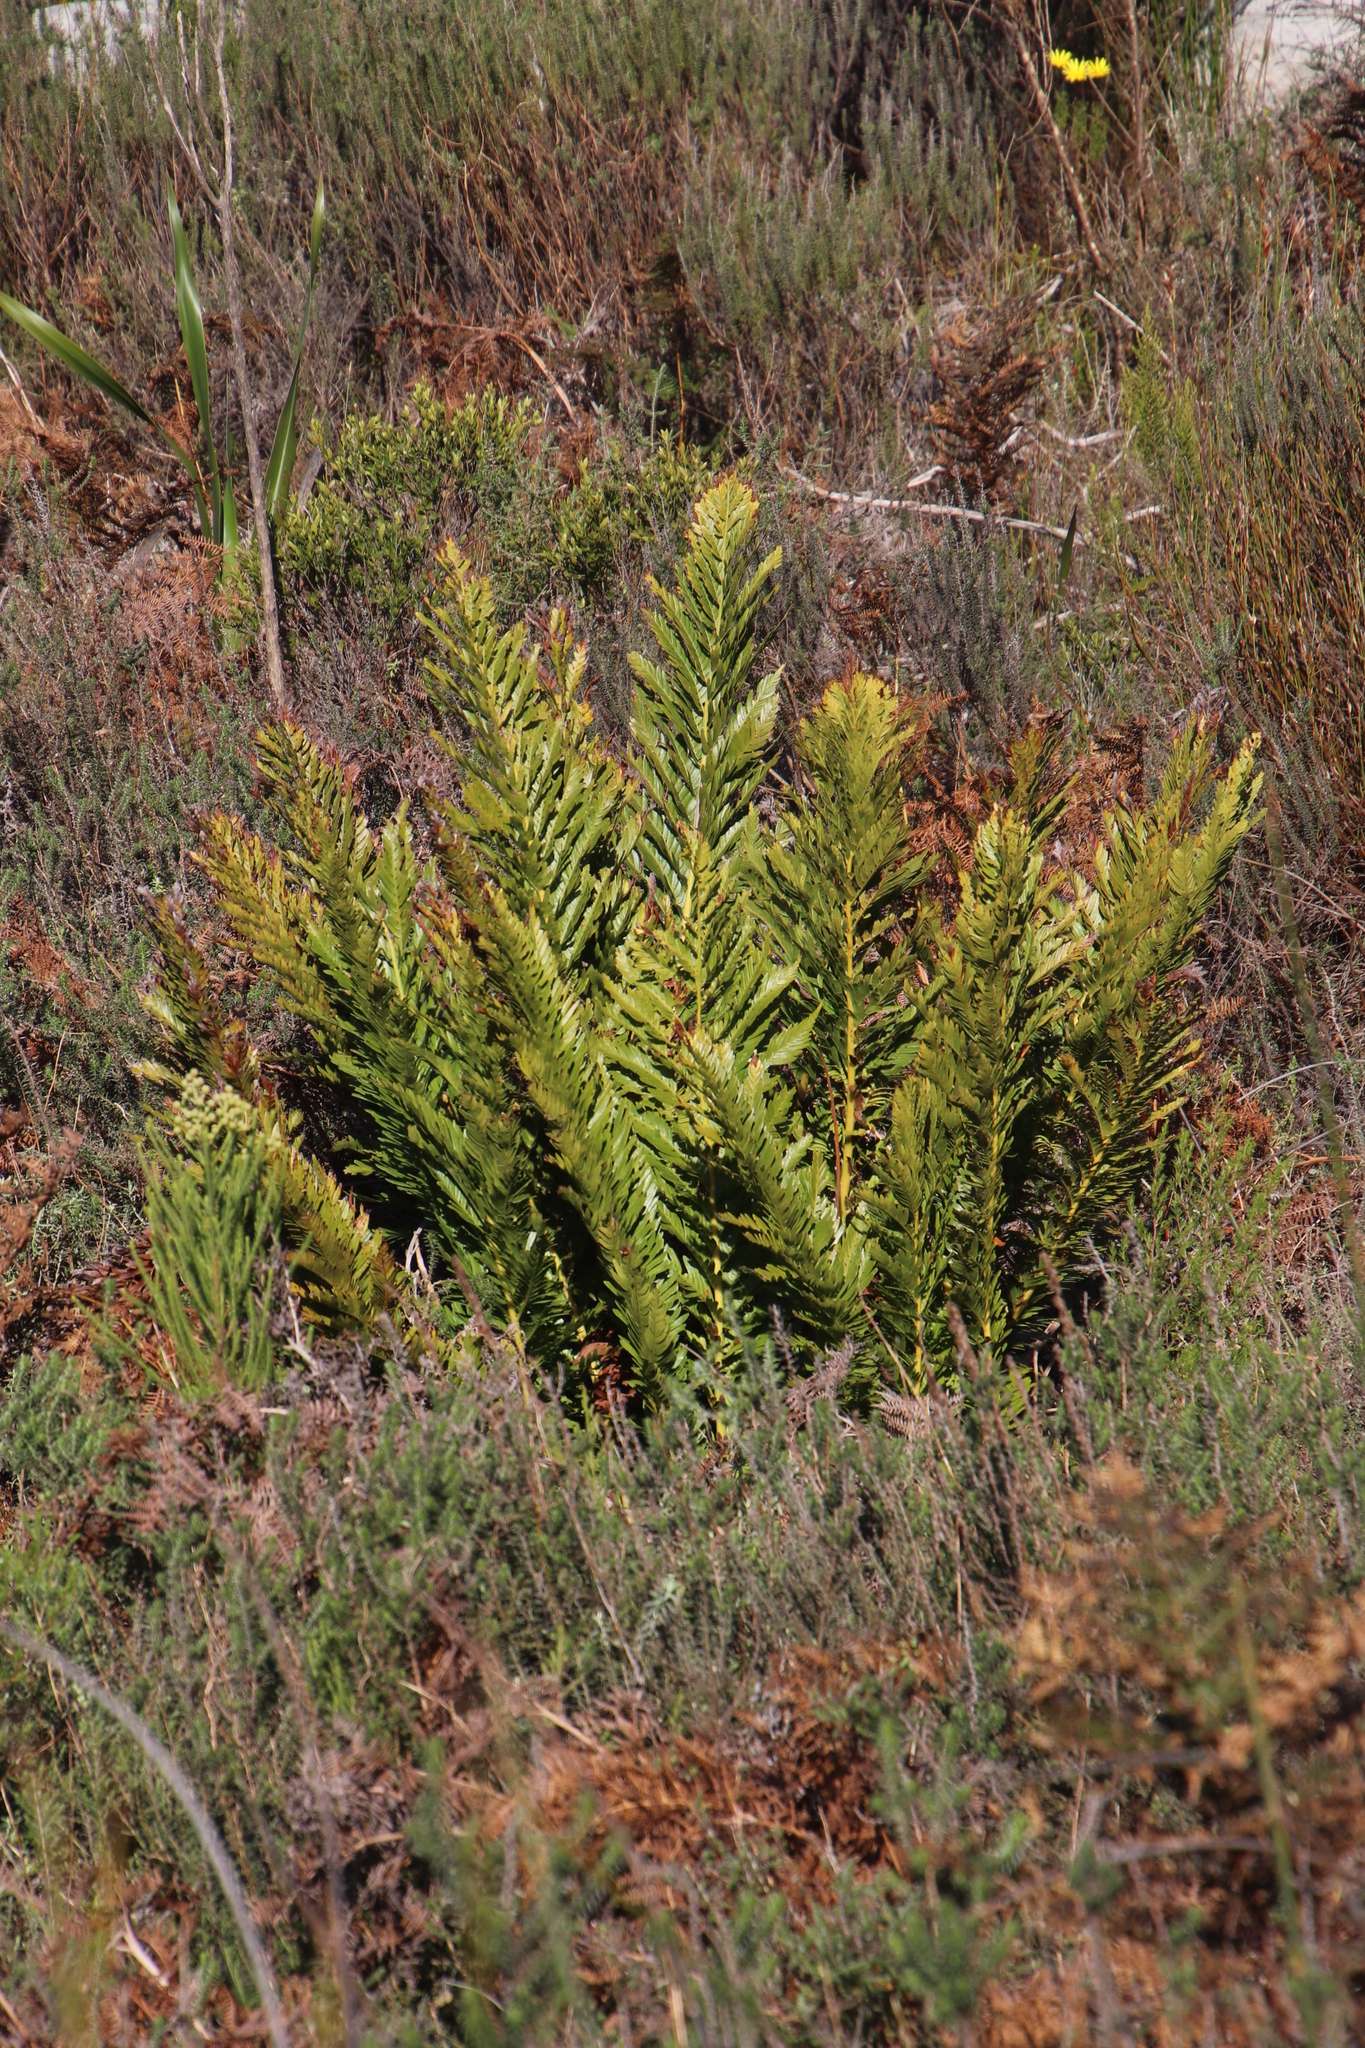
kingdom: Plantae
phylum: Tracheophyta
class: Polypodiopsida
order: Osmundales
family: Osmundaceae
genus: Todea
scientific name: Todea barbara
